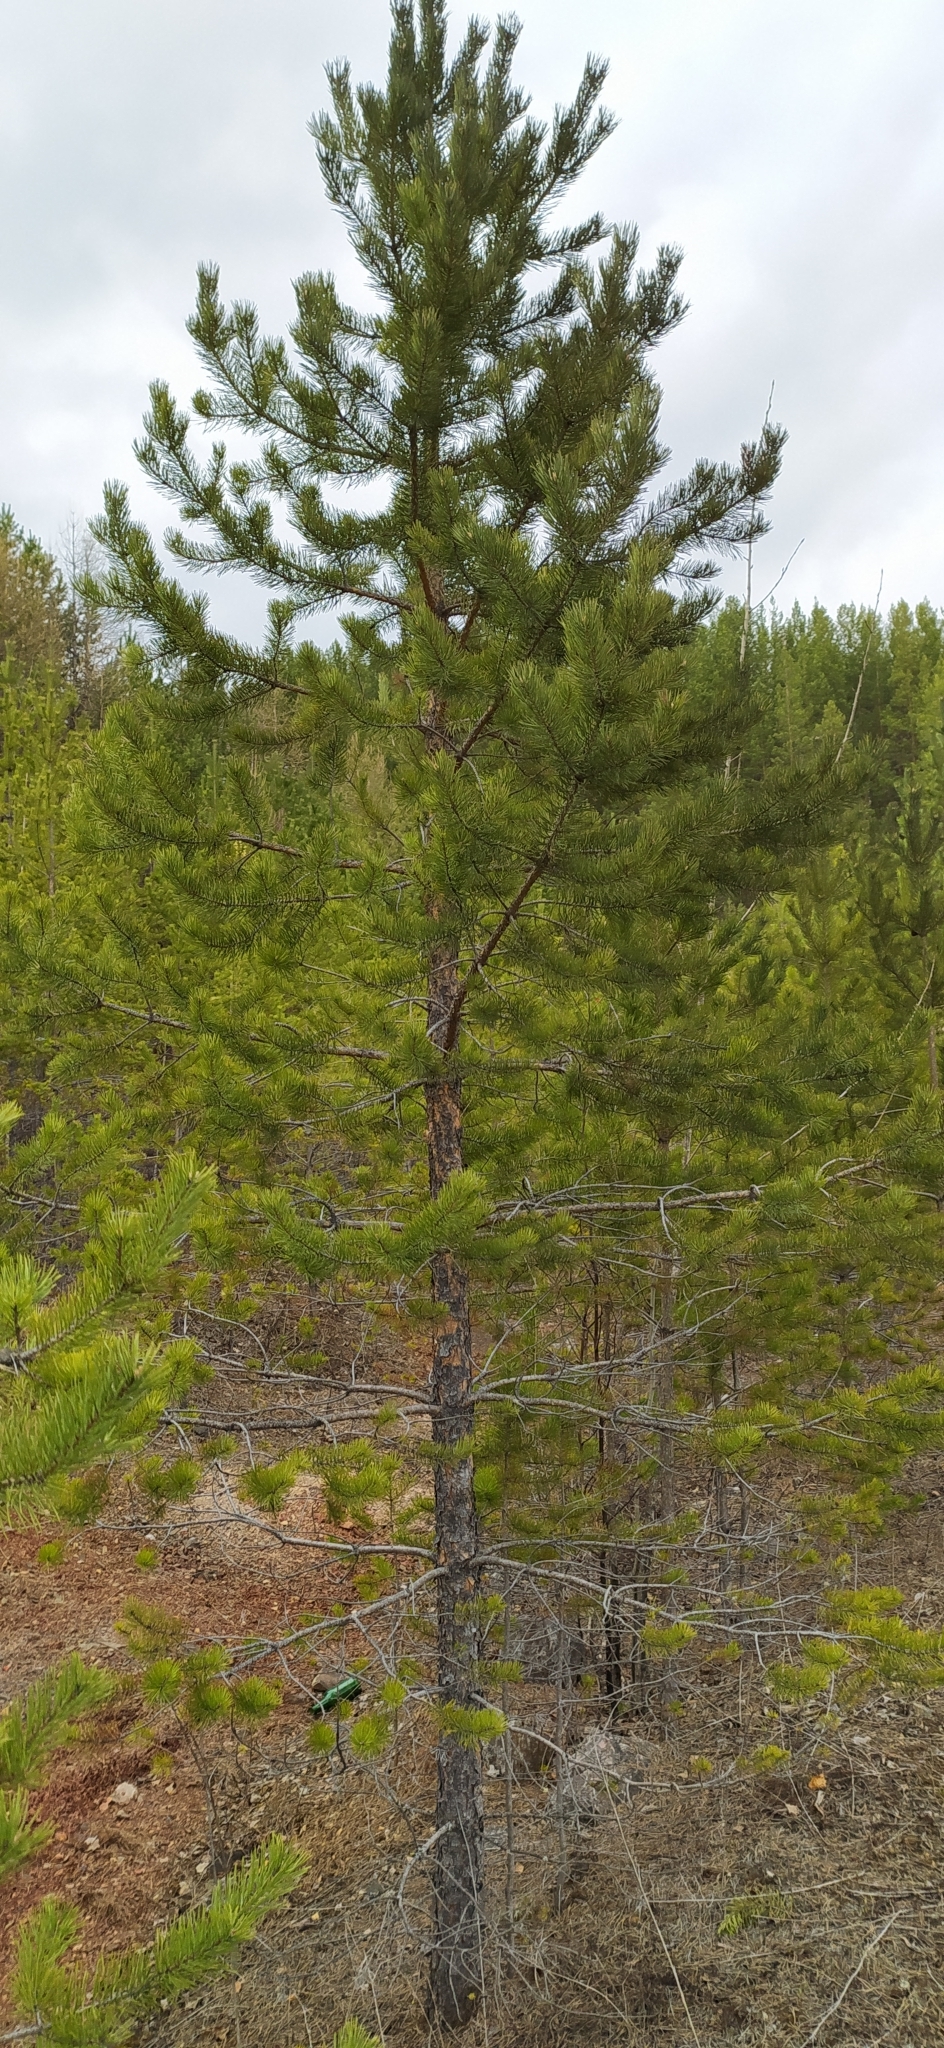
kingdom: Plantae
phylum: Tracheophyta
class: Pinopsida
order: Pinales
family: Pinaceae
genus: Pinus
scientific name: Pinus sylvestris
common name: Scots pine
